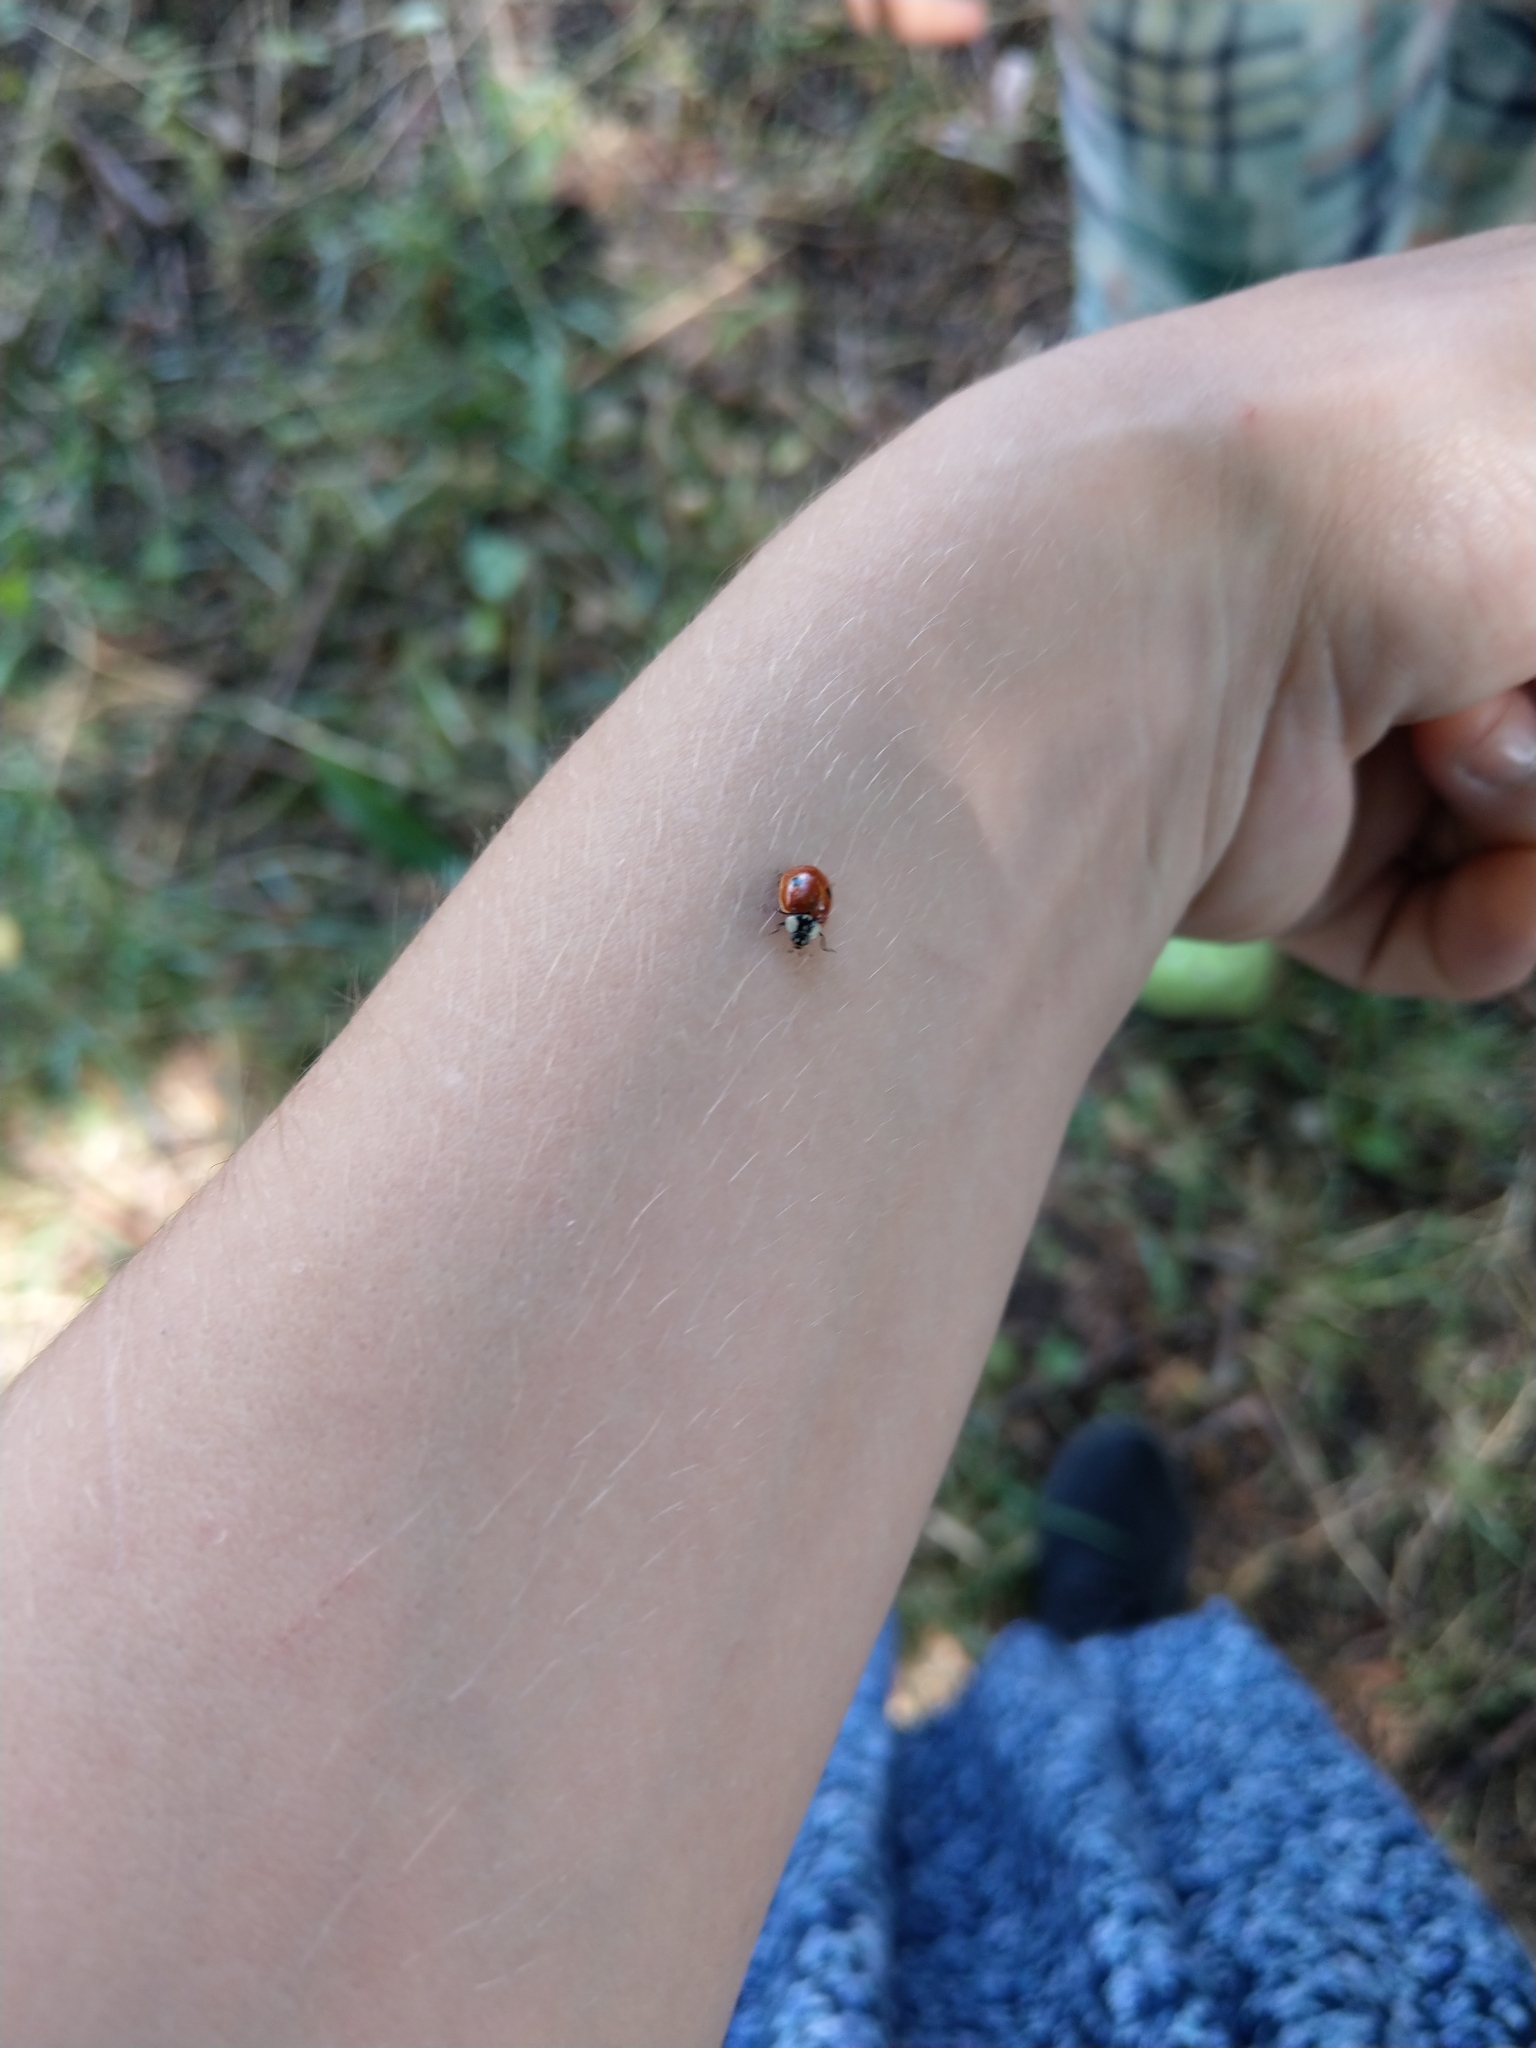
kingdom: Animalia
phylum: Arthropoda
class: Insecta
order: Coleoptera
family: Coccinellidae
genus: Adalia
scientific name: Adalia bipunctata
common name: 2-spot ladybird
